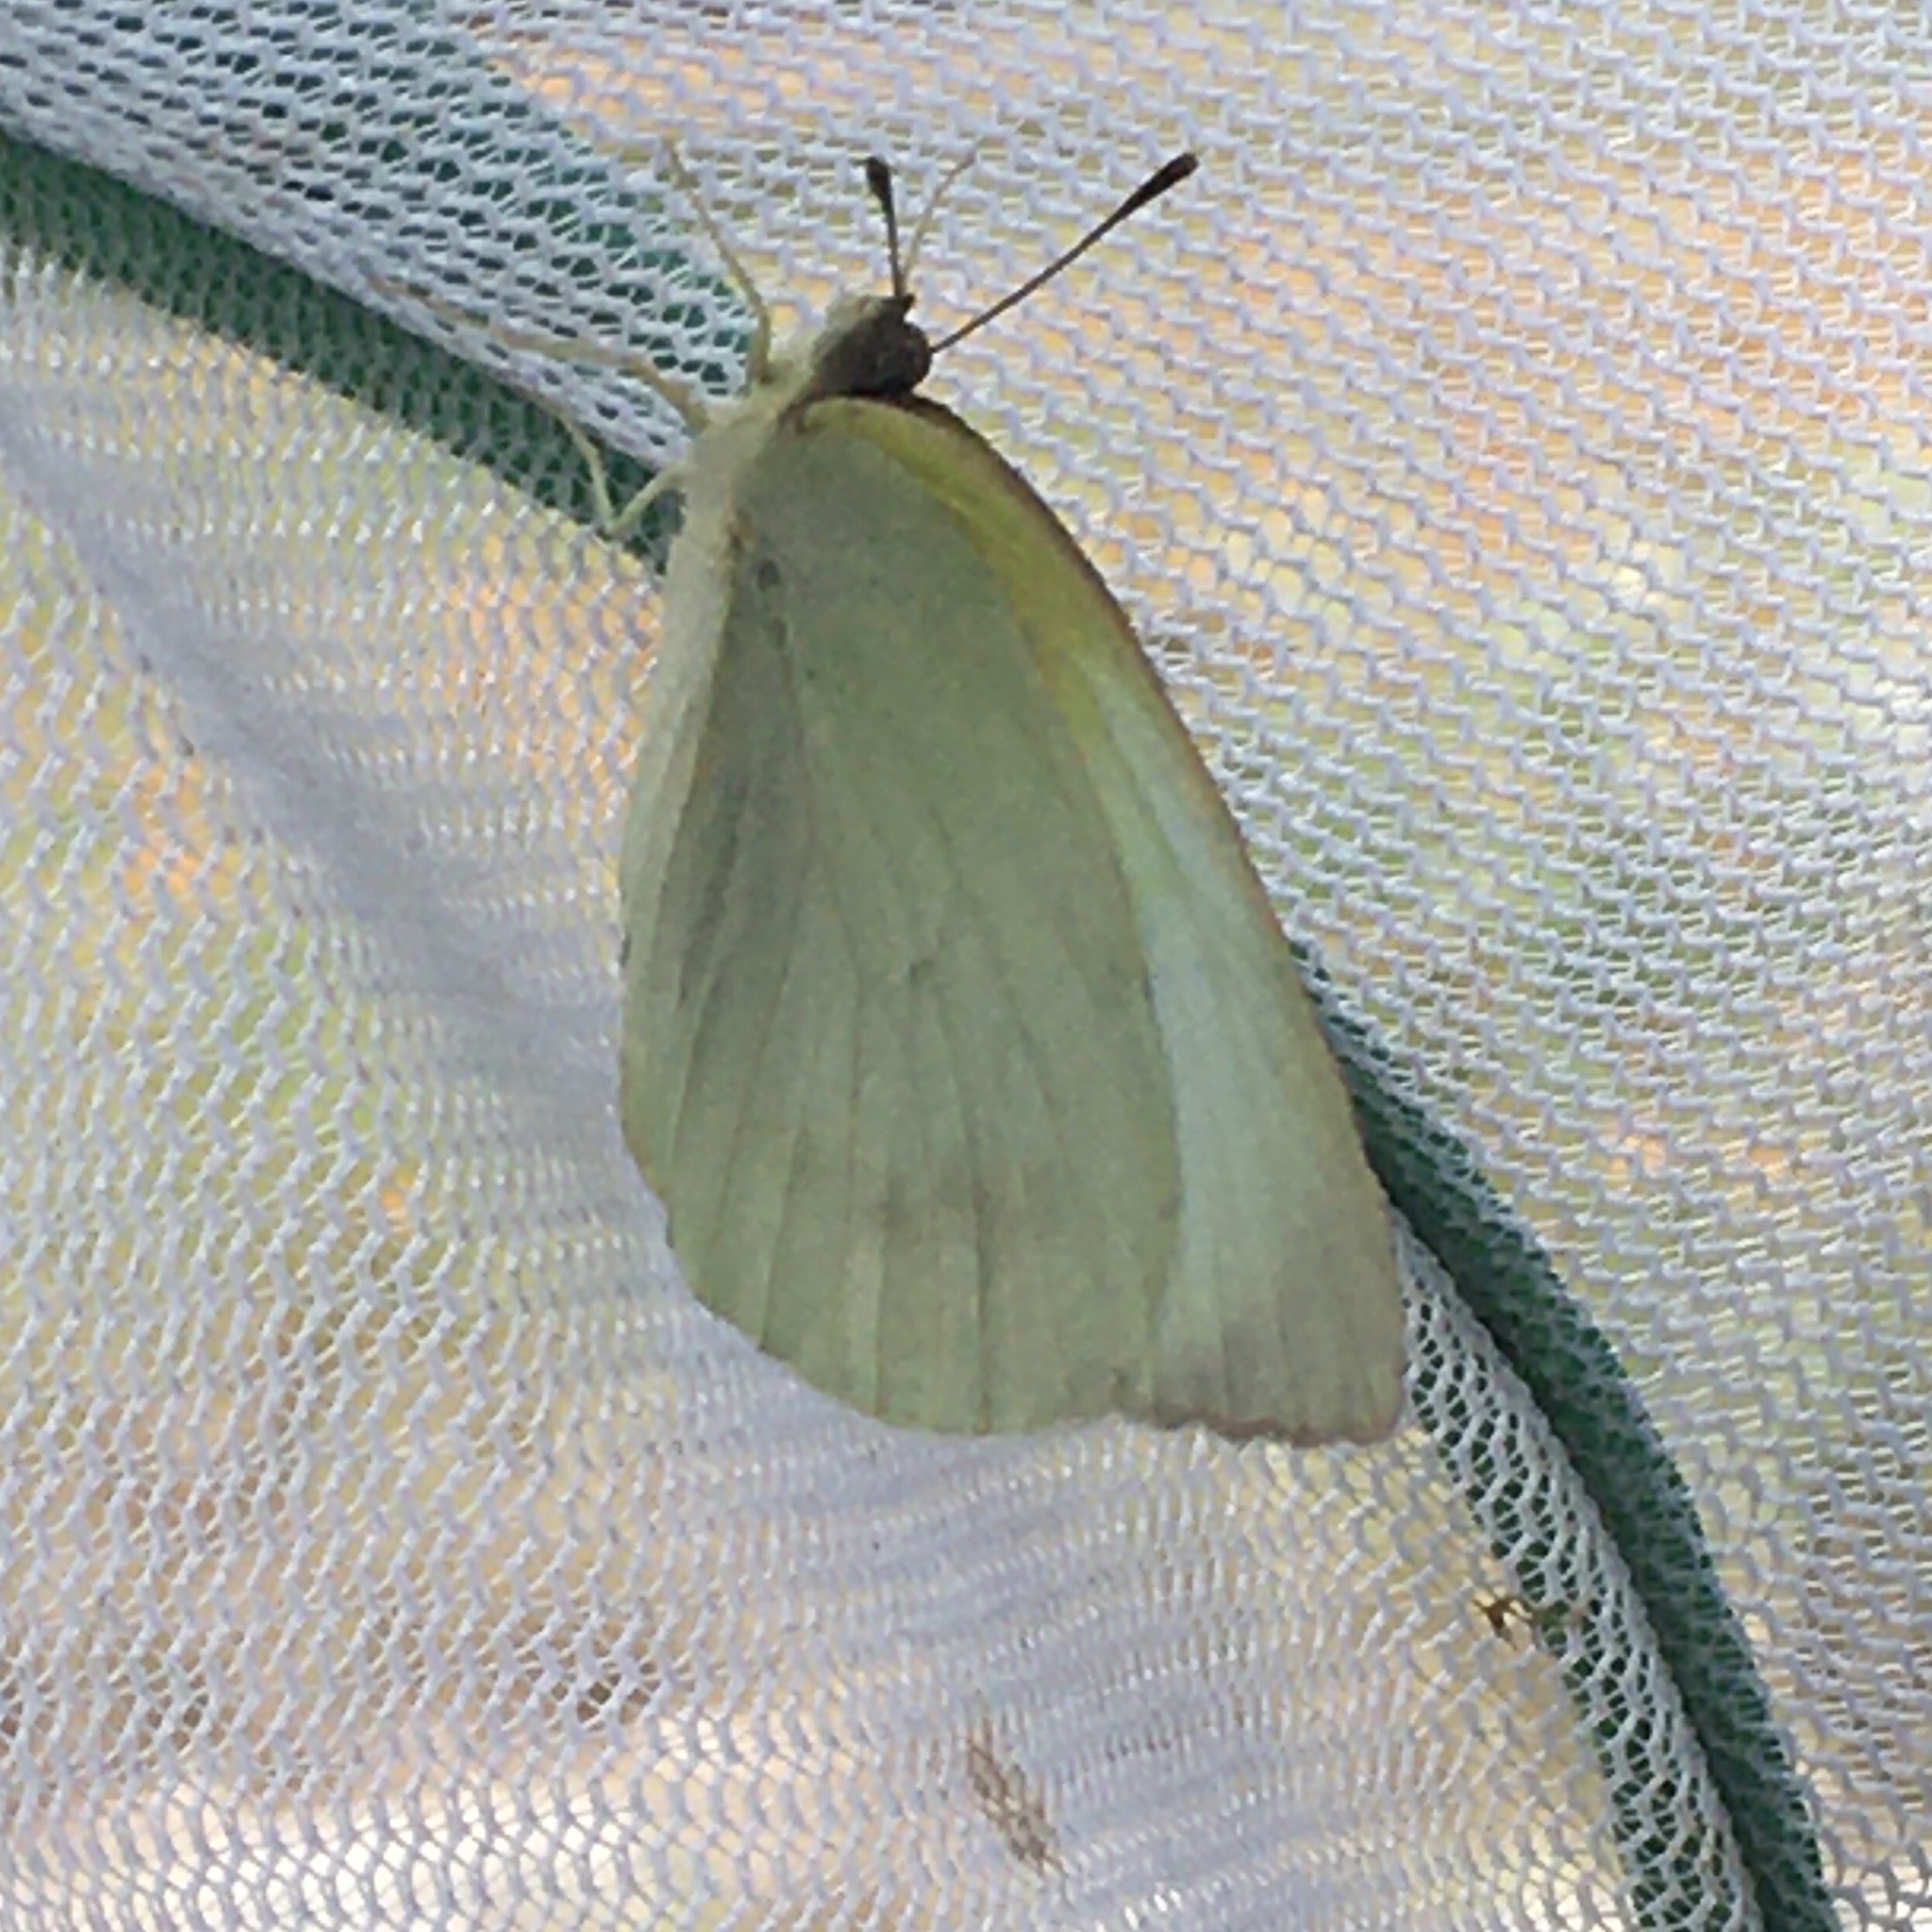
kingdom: Animalia
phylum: Arthropoda
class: Insecta
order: Lepidoptera
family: Pieridae
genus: Kricogonia
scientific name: Kricogonia lyside
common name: Guayacan sulphur,
